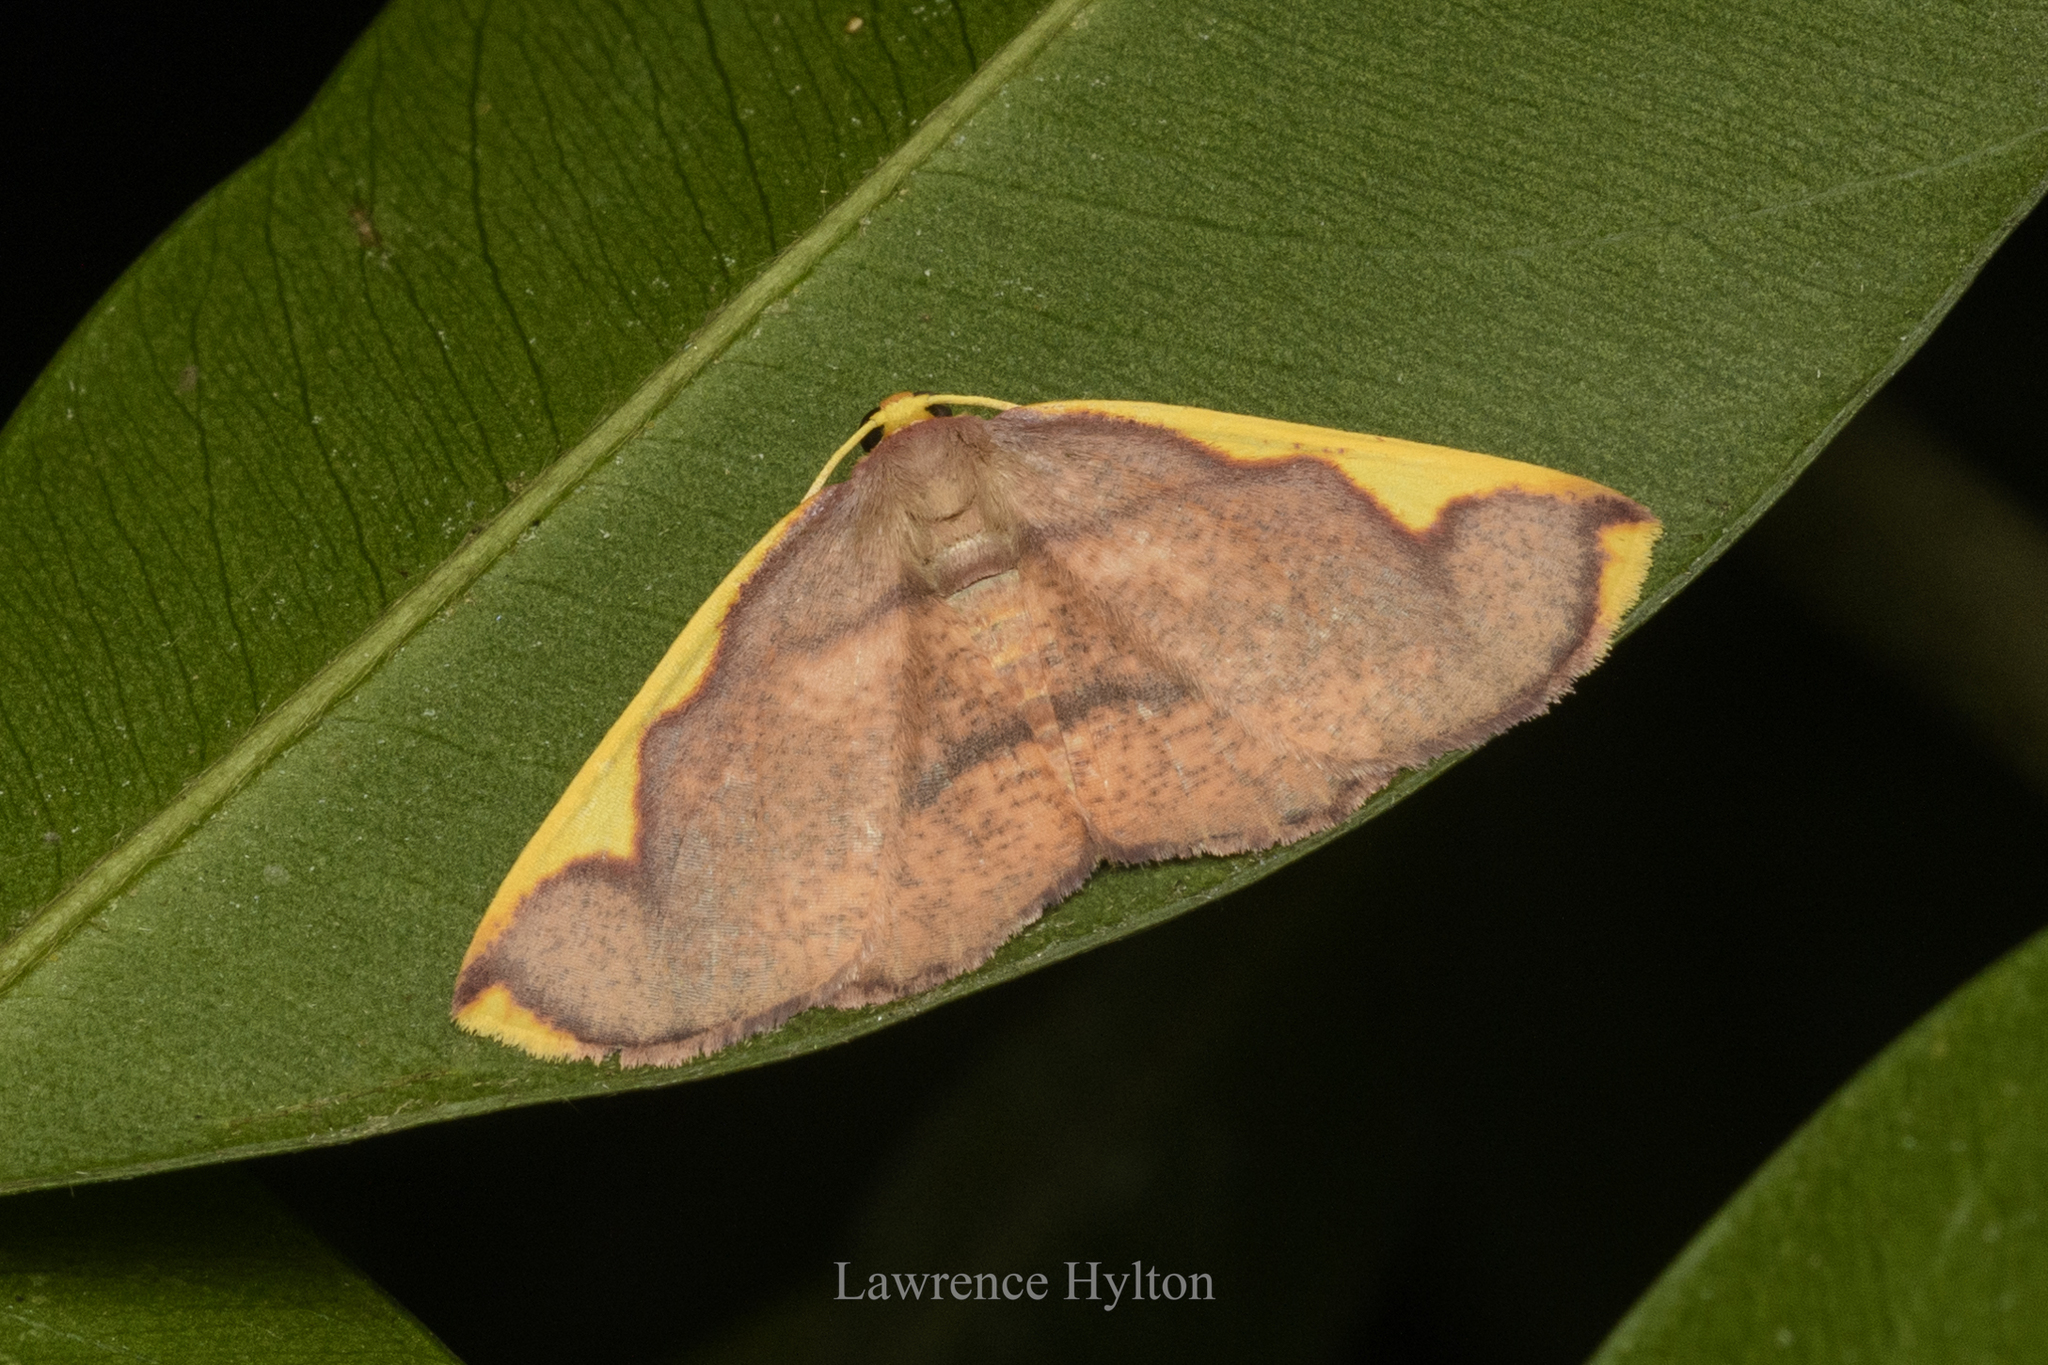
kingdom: Animalia
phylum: Arthropoda
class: Insecta
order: Lepidoptera
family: Geometridae
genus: Nothomiza
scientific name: Nothomiza flavicosta
